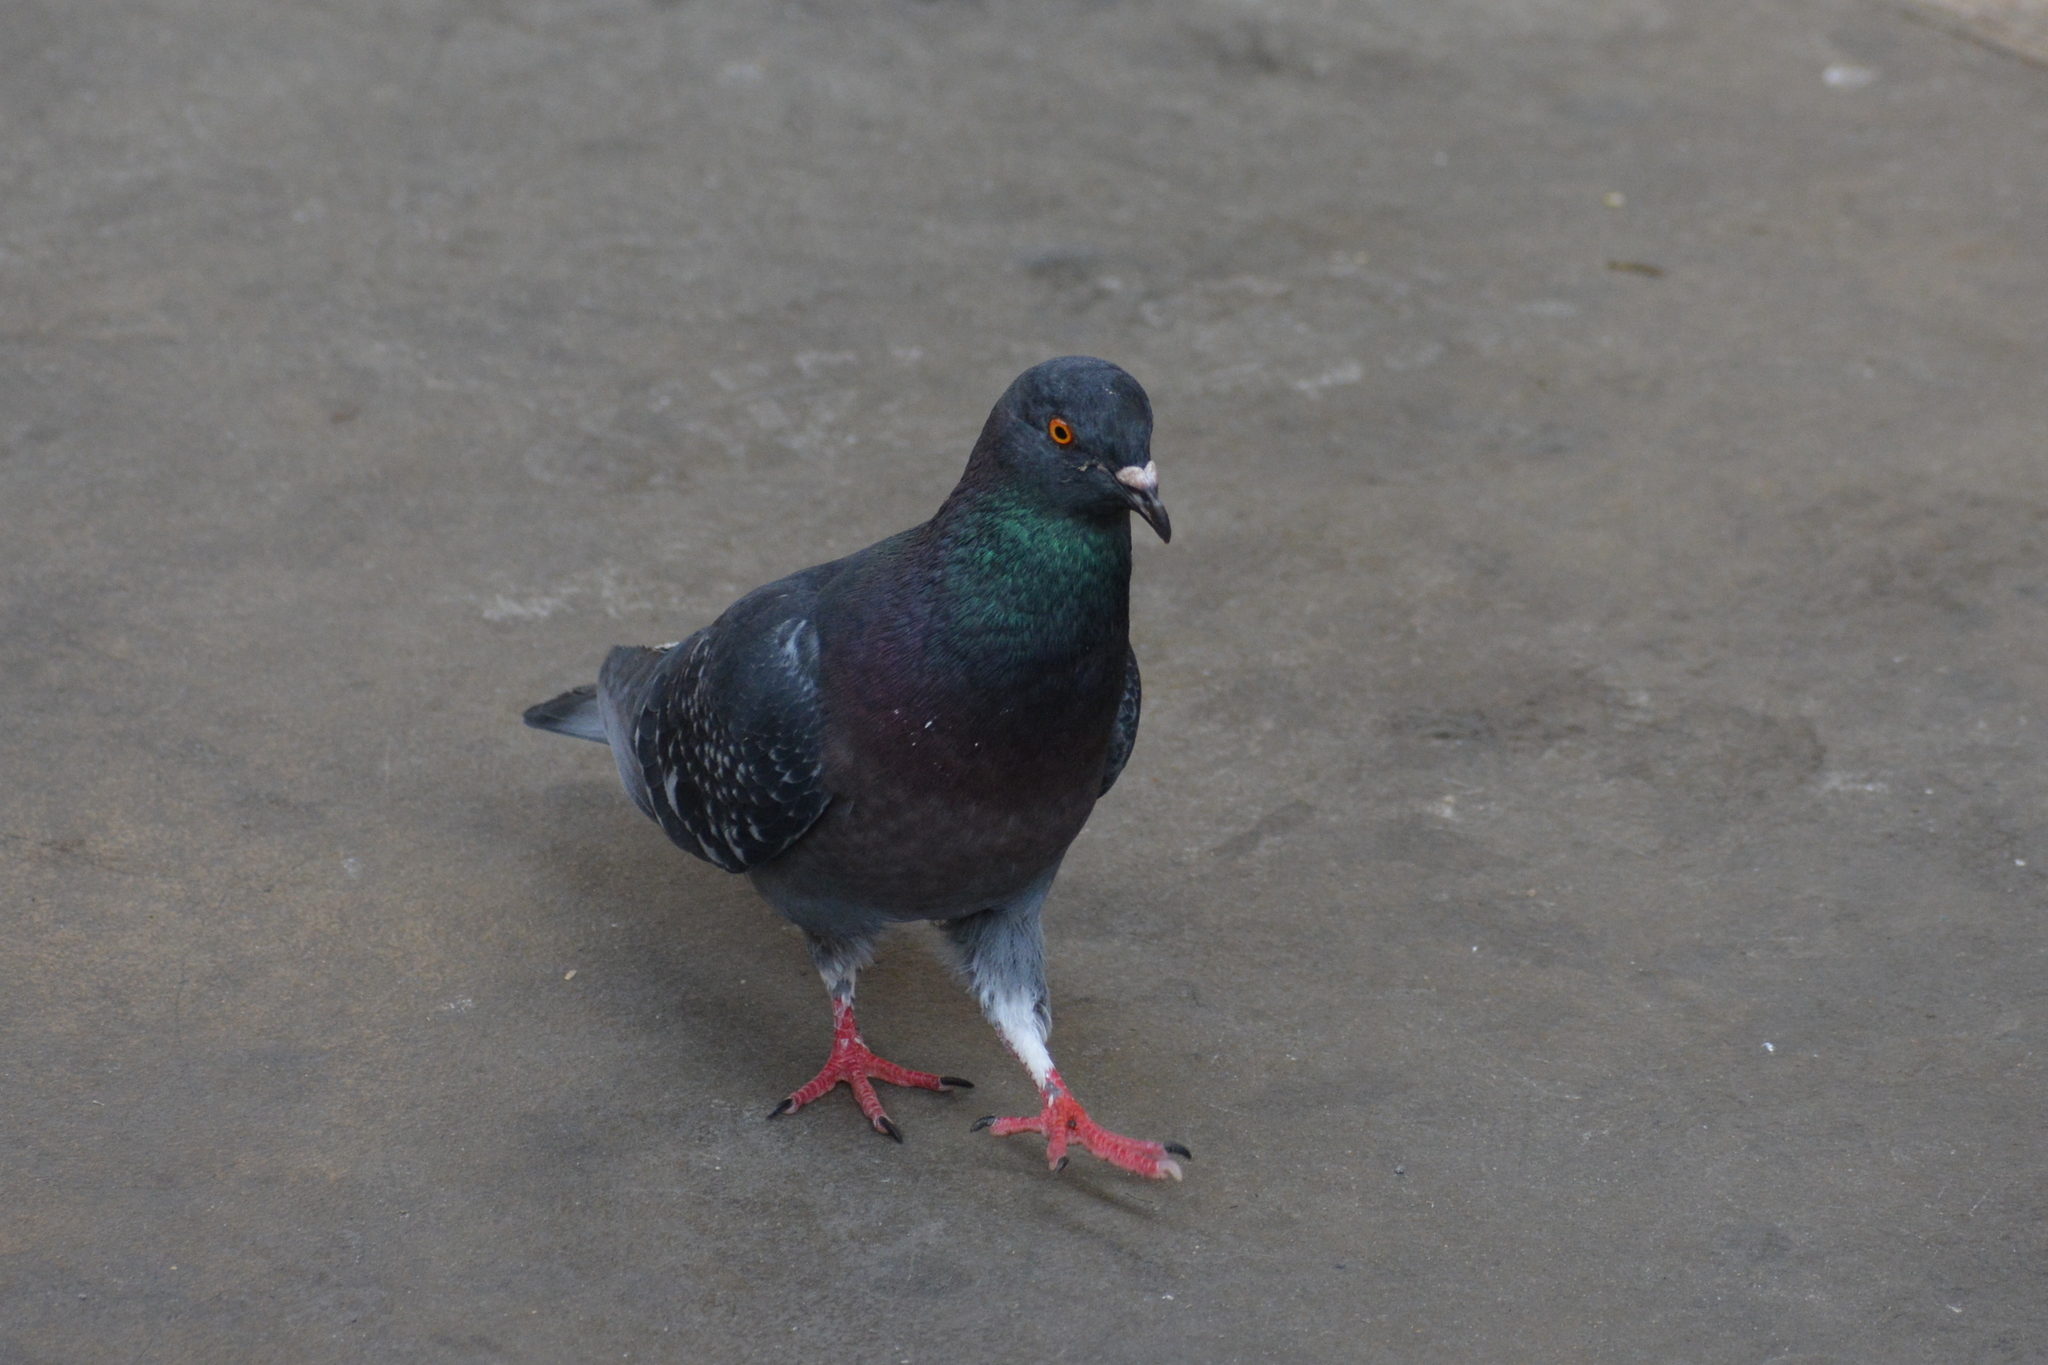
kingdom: Animalia
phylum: Chordata
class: Aves
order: Columbiformes
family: Columbidae
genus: Columba
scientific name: Columba livia
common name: Rock pigeon
